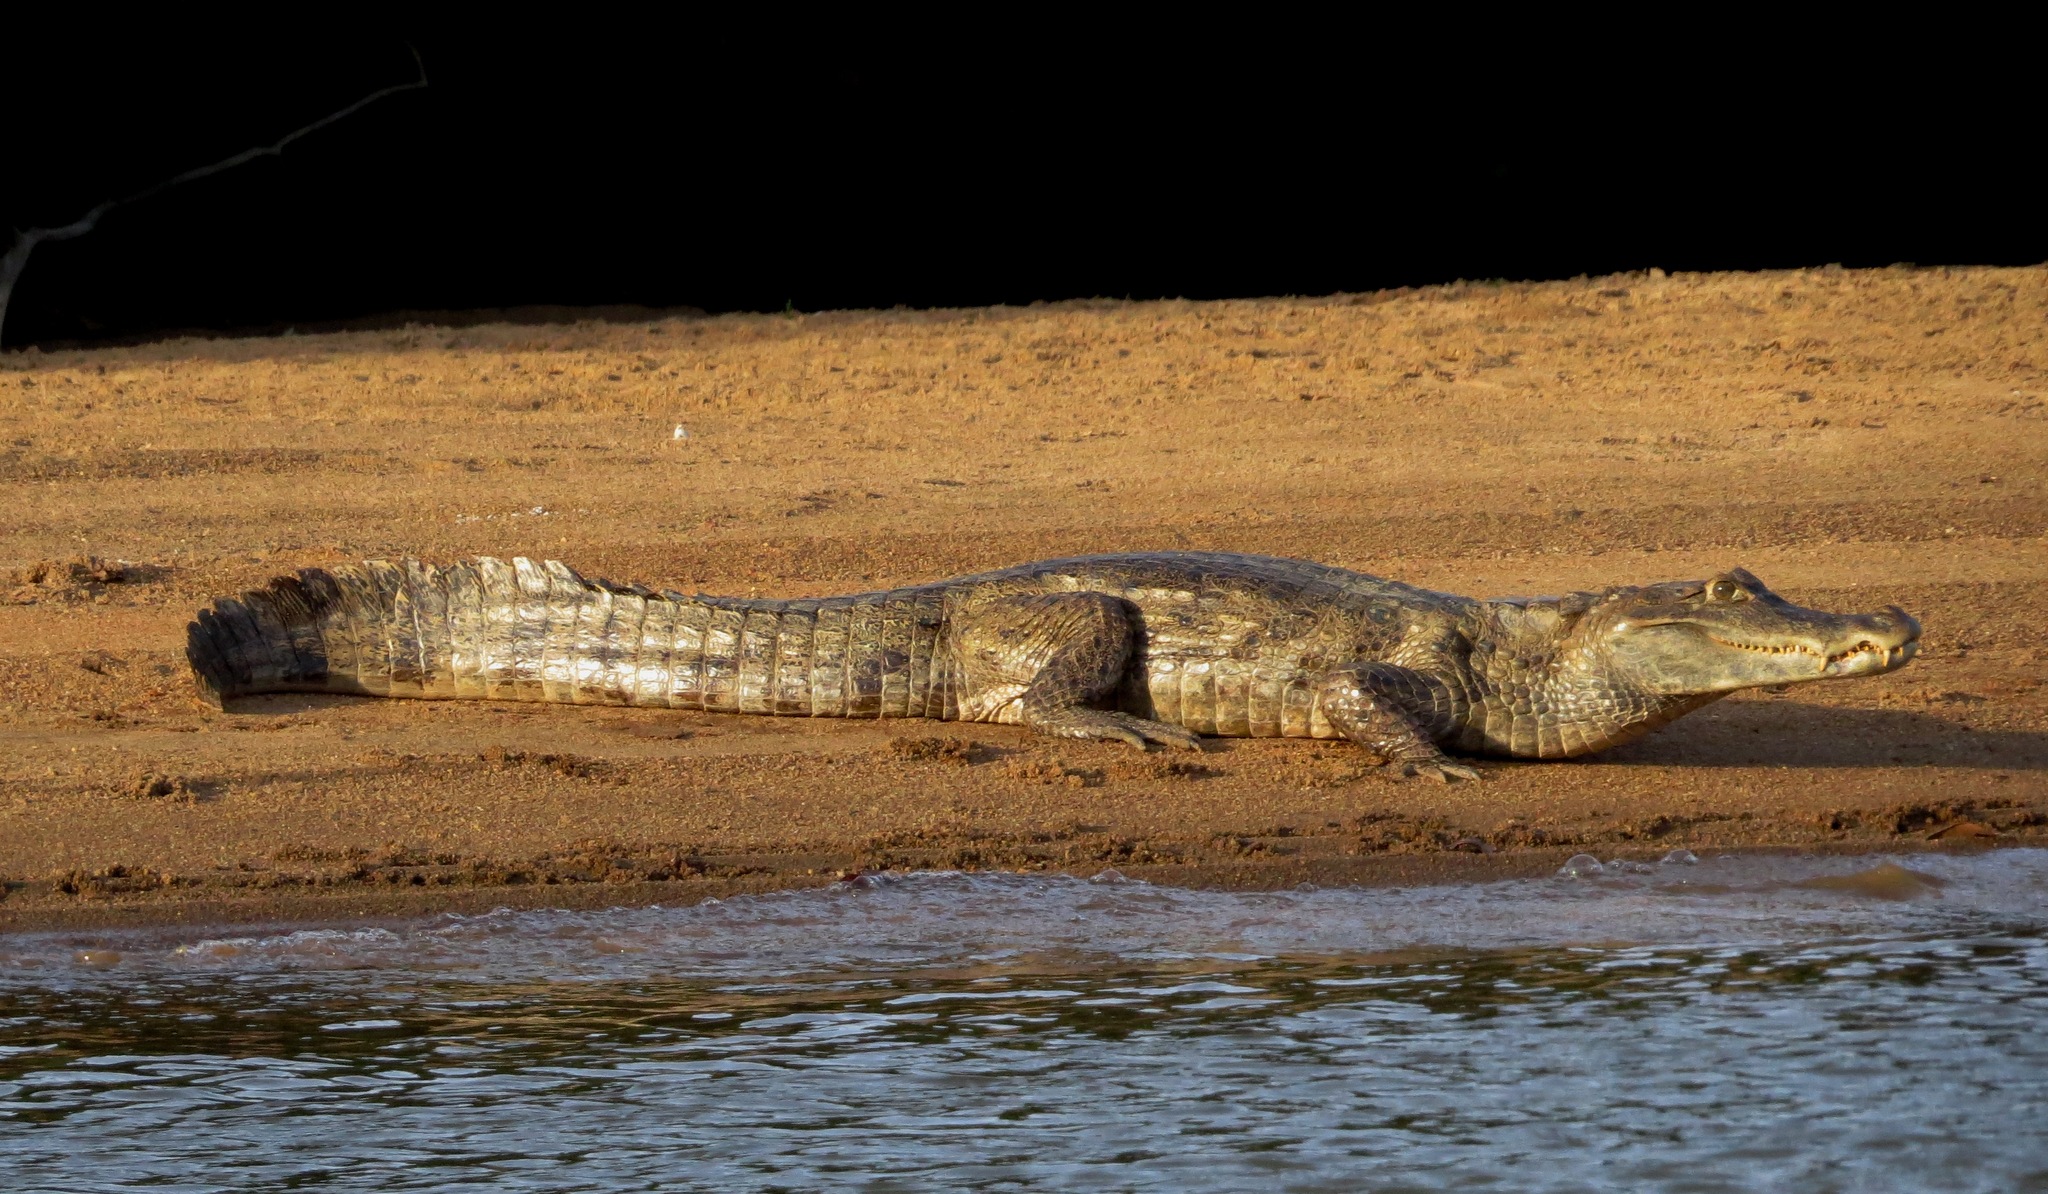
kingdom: Animalia
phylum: Chordata
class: Crocodylia
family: Alligatoridae
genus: Caiman
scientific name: Caiman crocodilus
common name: Common caiman
